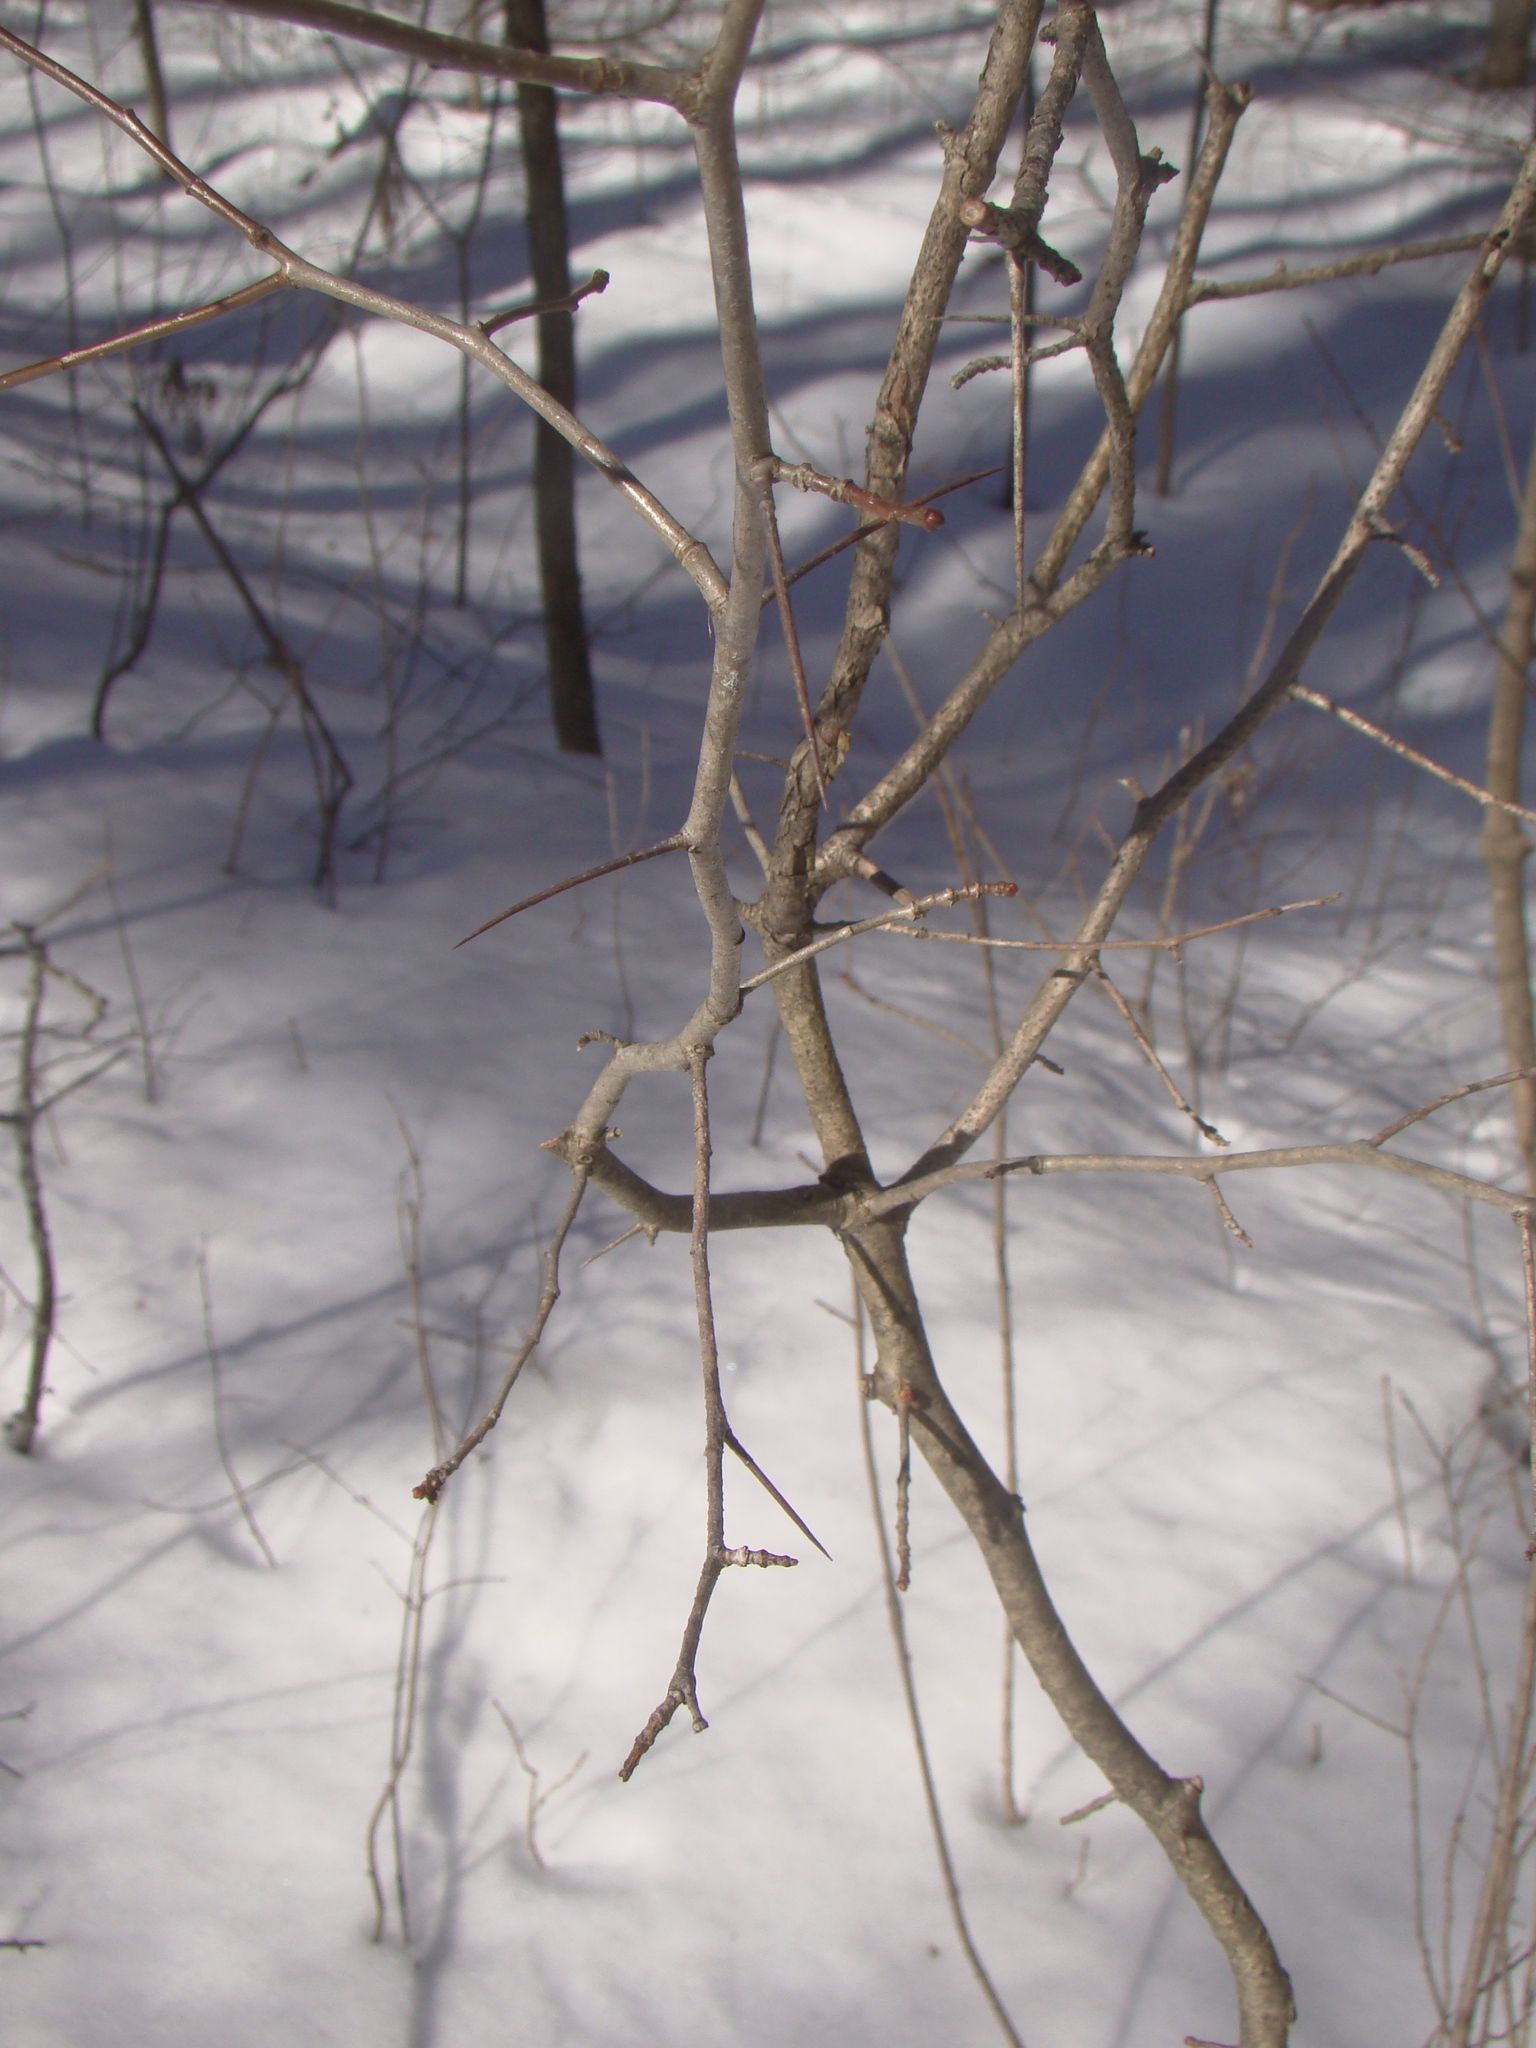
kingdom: Plantae
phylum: Tracheophyta
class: Magnoliopsida
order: Rosales
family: Rosaceae
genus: Crataegus
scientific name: Crataegus
